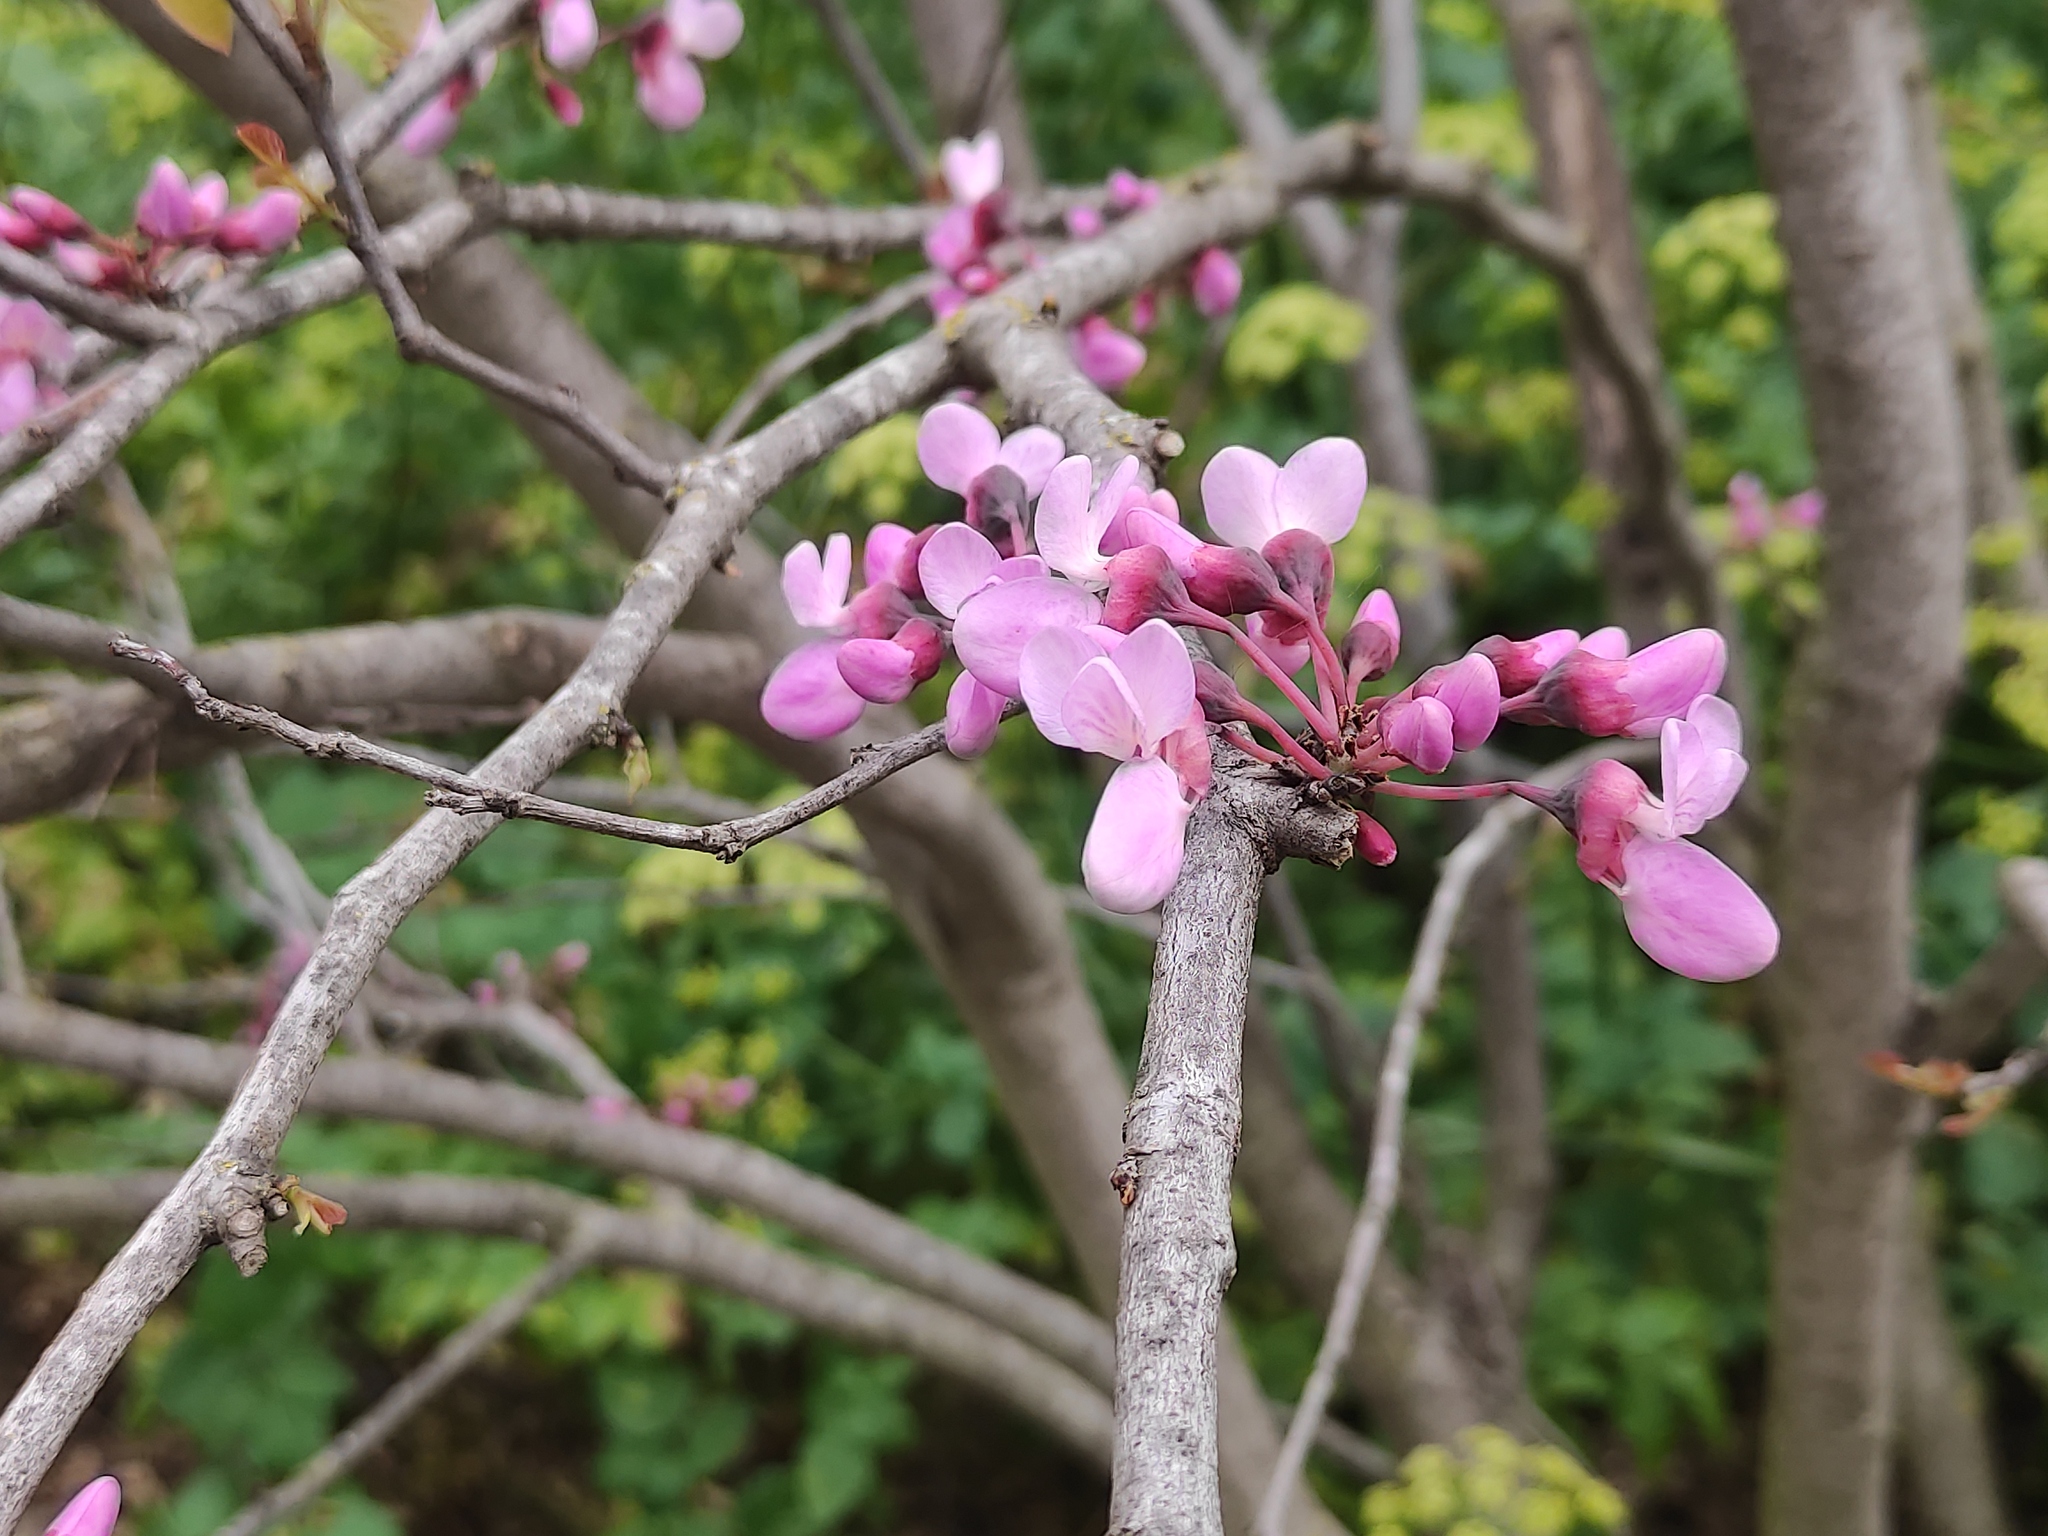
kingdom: Plantae
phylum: Tracheophyta
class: Magnoliopsida
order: Fabales
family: Fabaceae
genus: Cercis
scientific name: Cercis siliquastrum
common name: Judas tree
